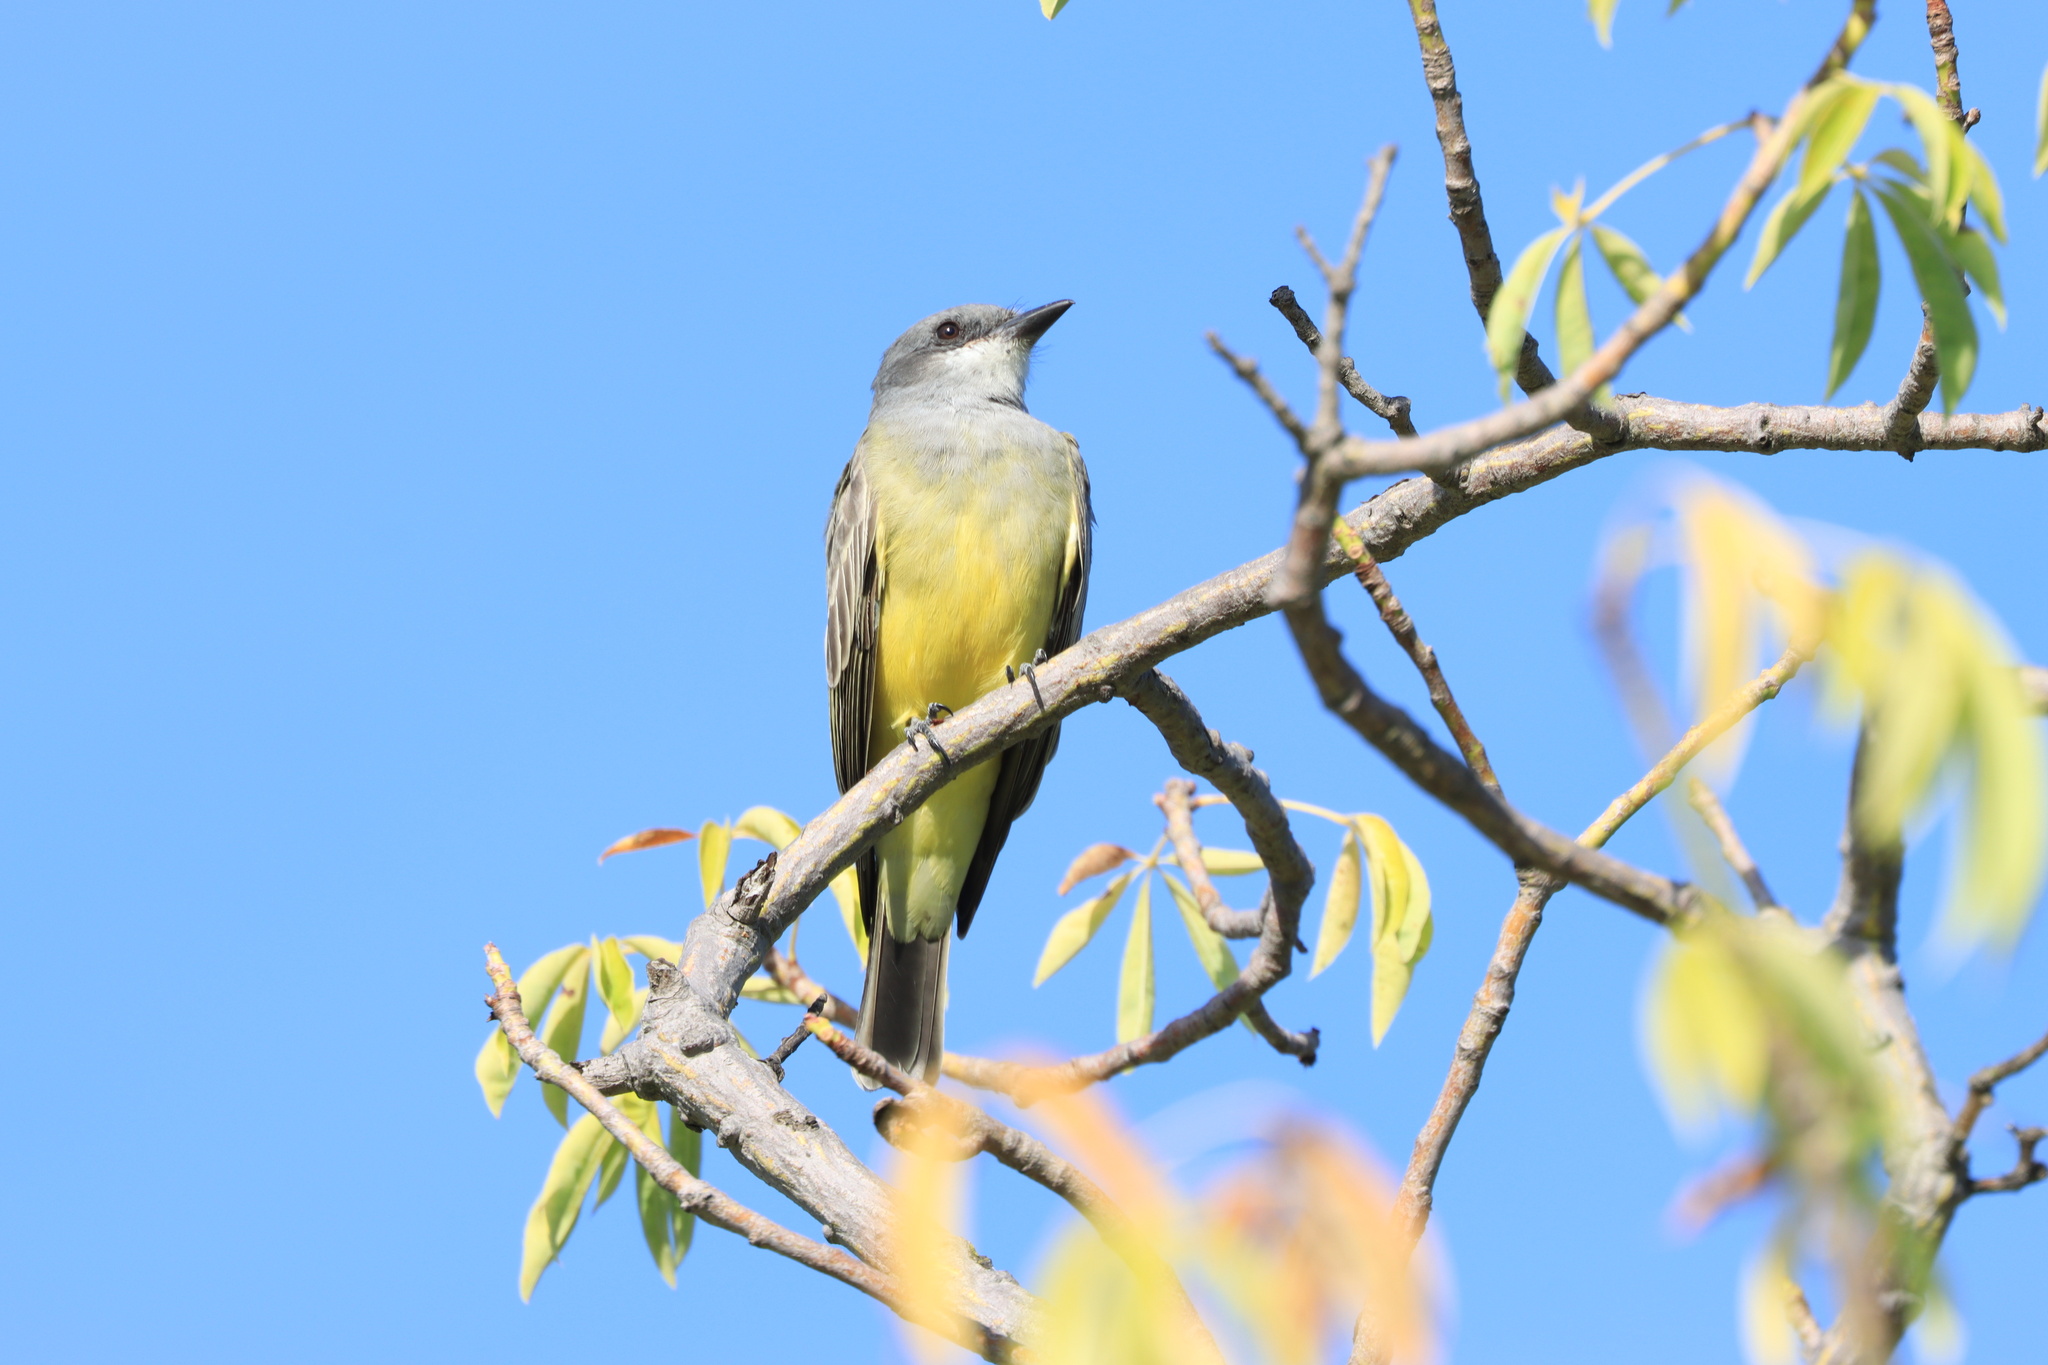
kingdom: Animalia
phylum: Chordata
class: Aves
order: Passeriformes
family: Tyrannidae
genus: Tyrannus
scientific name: Tyrannus vociferans
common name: Cassin's kingbird
